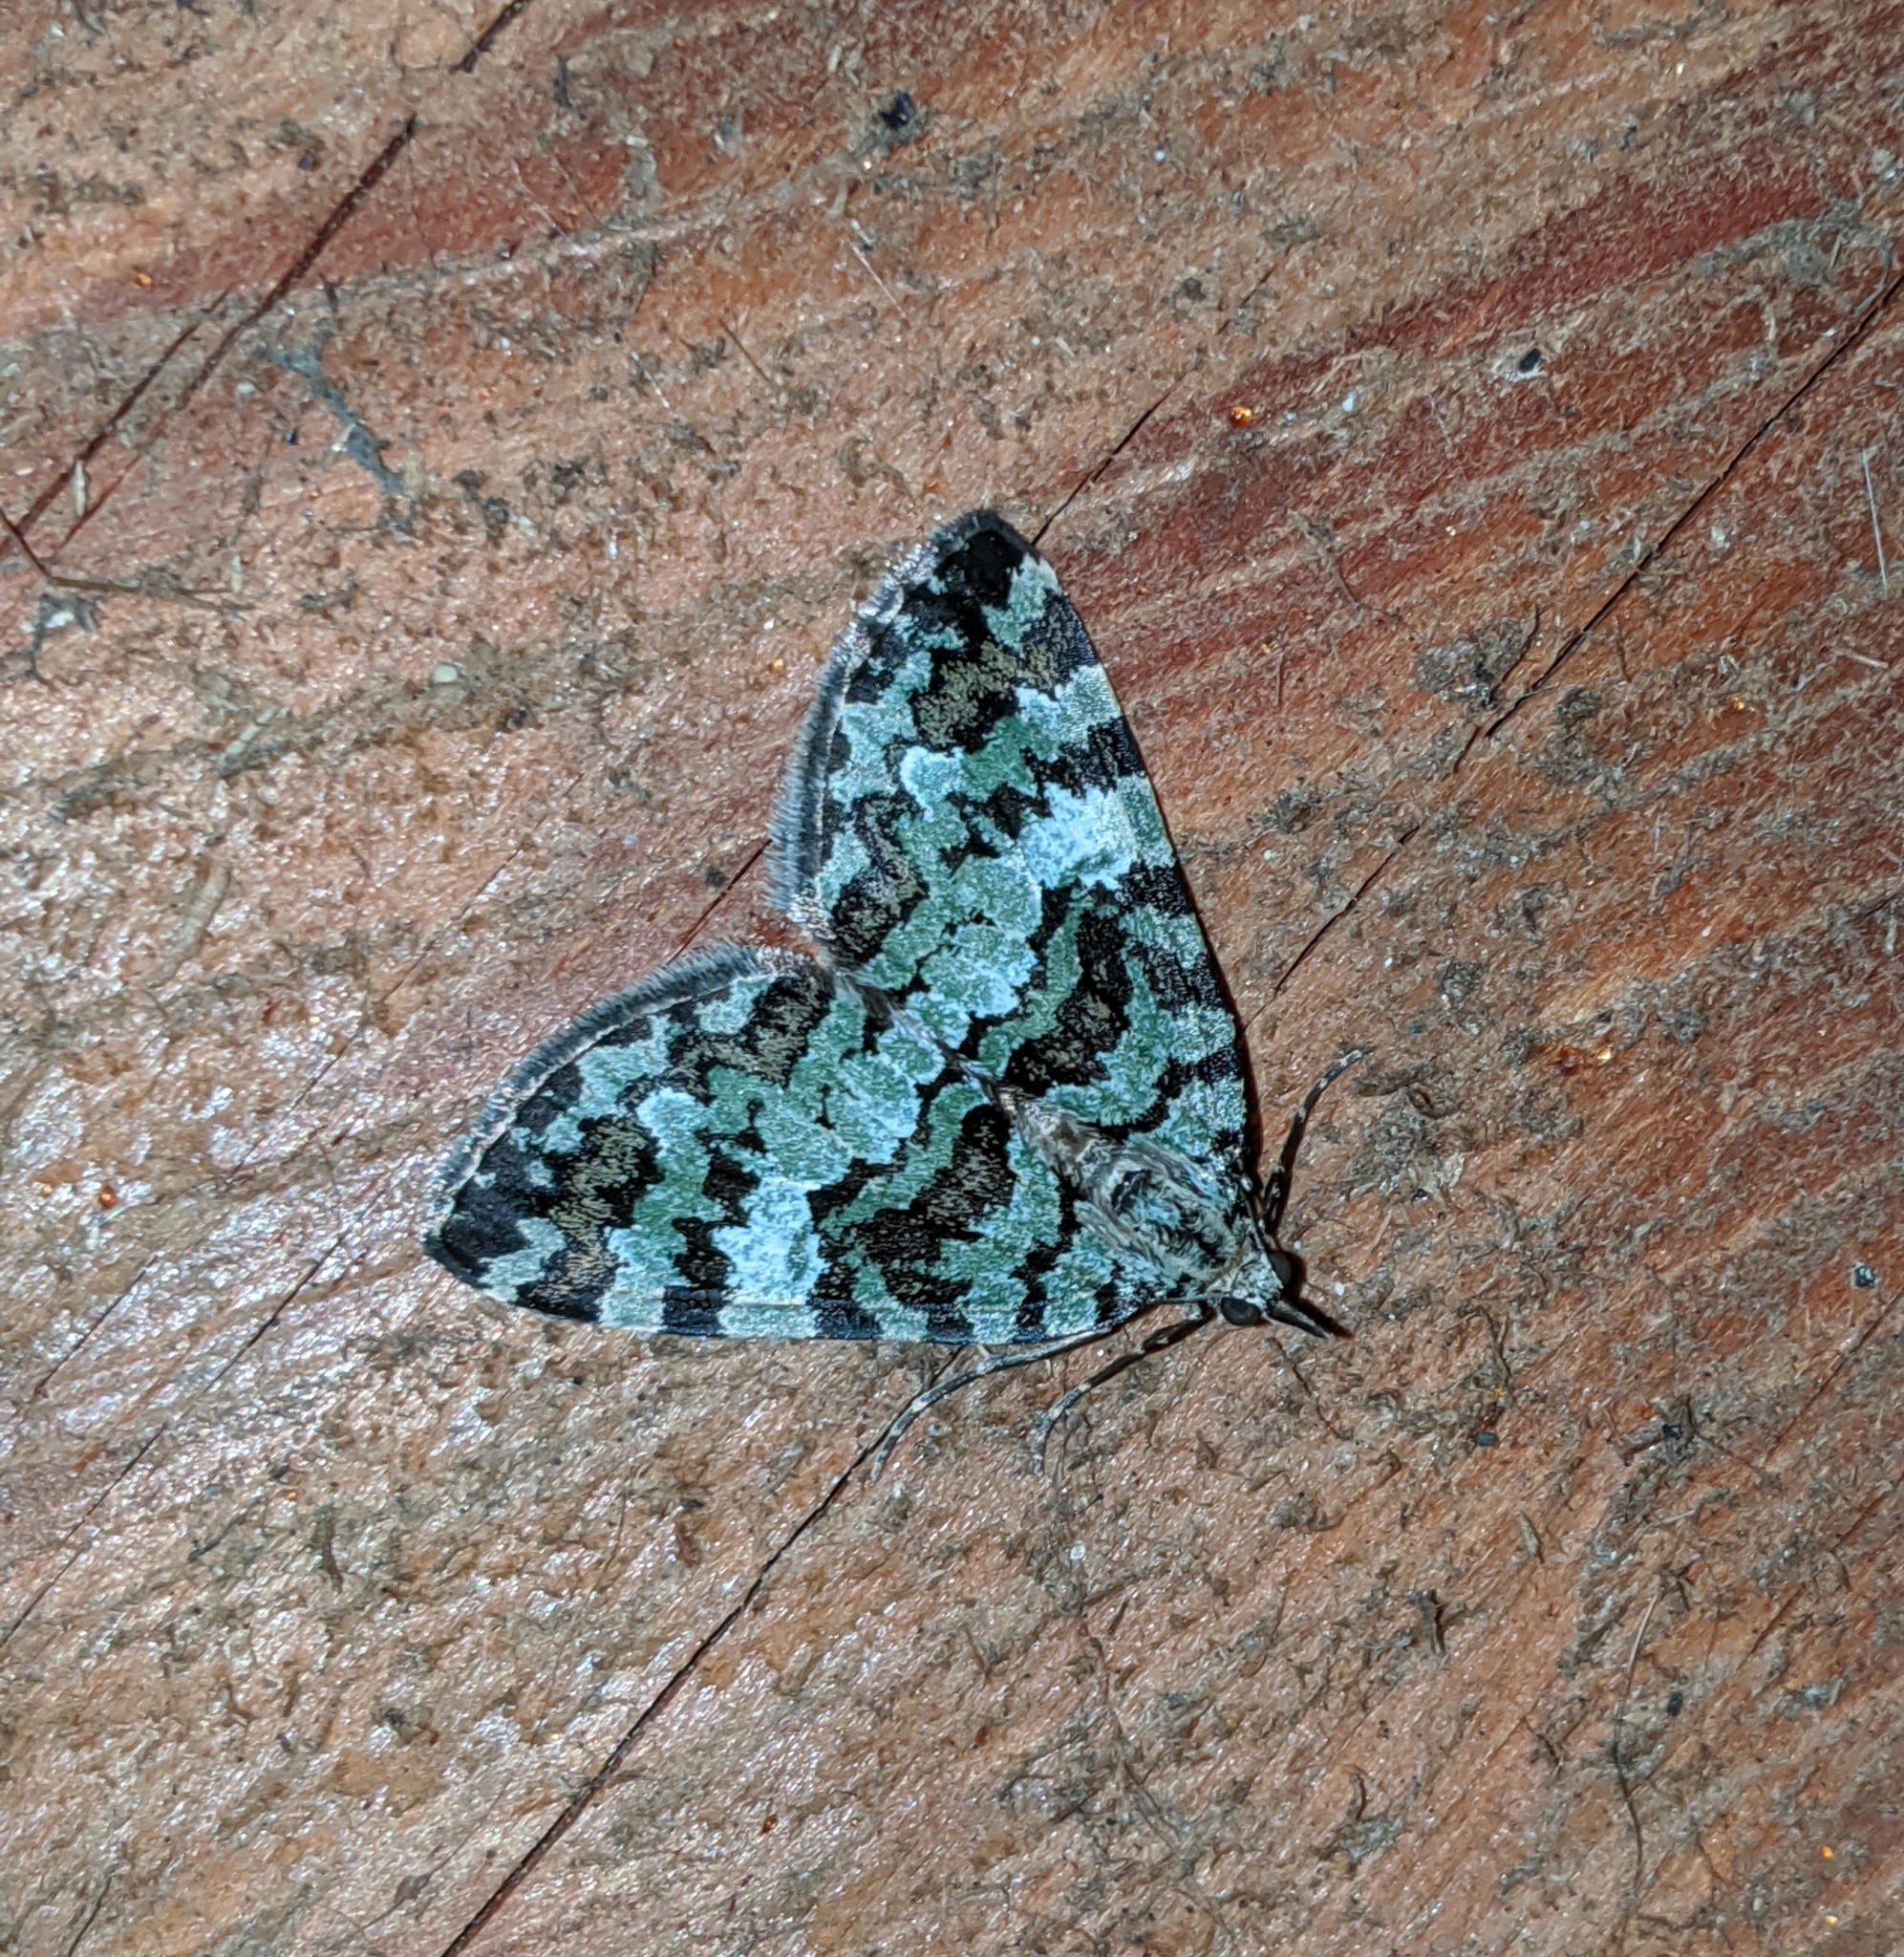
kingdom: Animalia
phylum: Arthropoda
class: Insecta
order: Lepidoptera
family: Geometridae
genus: Hydriomena
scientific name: Hydriomena speciosata
